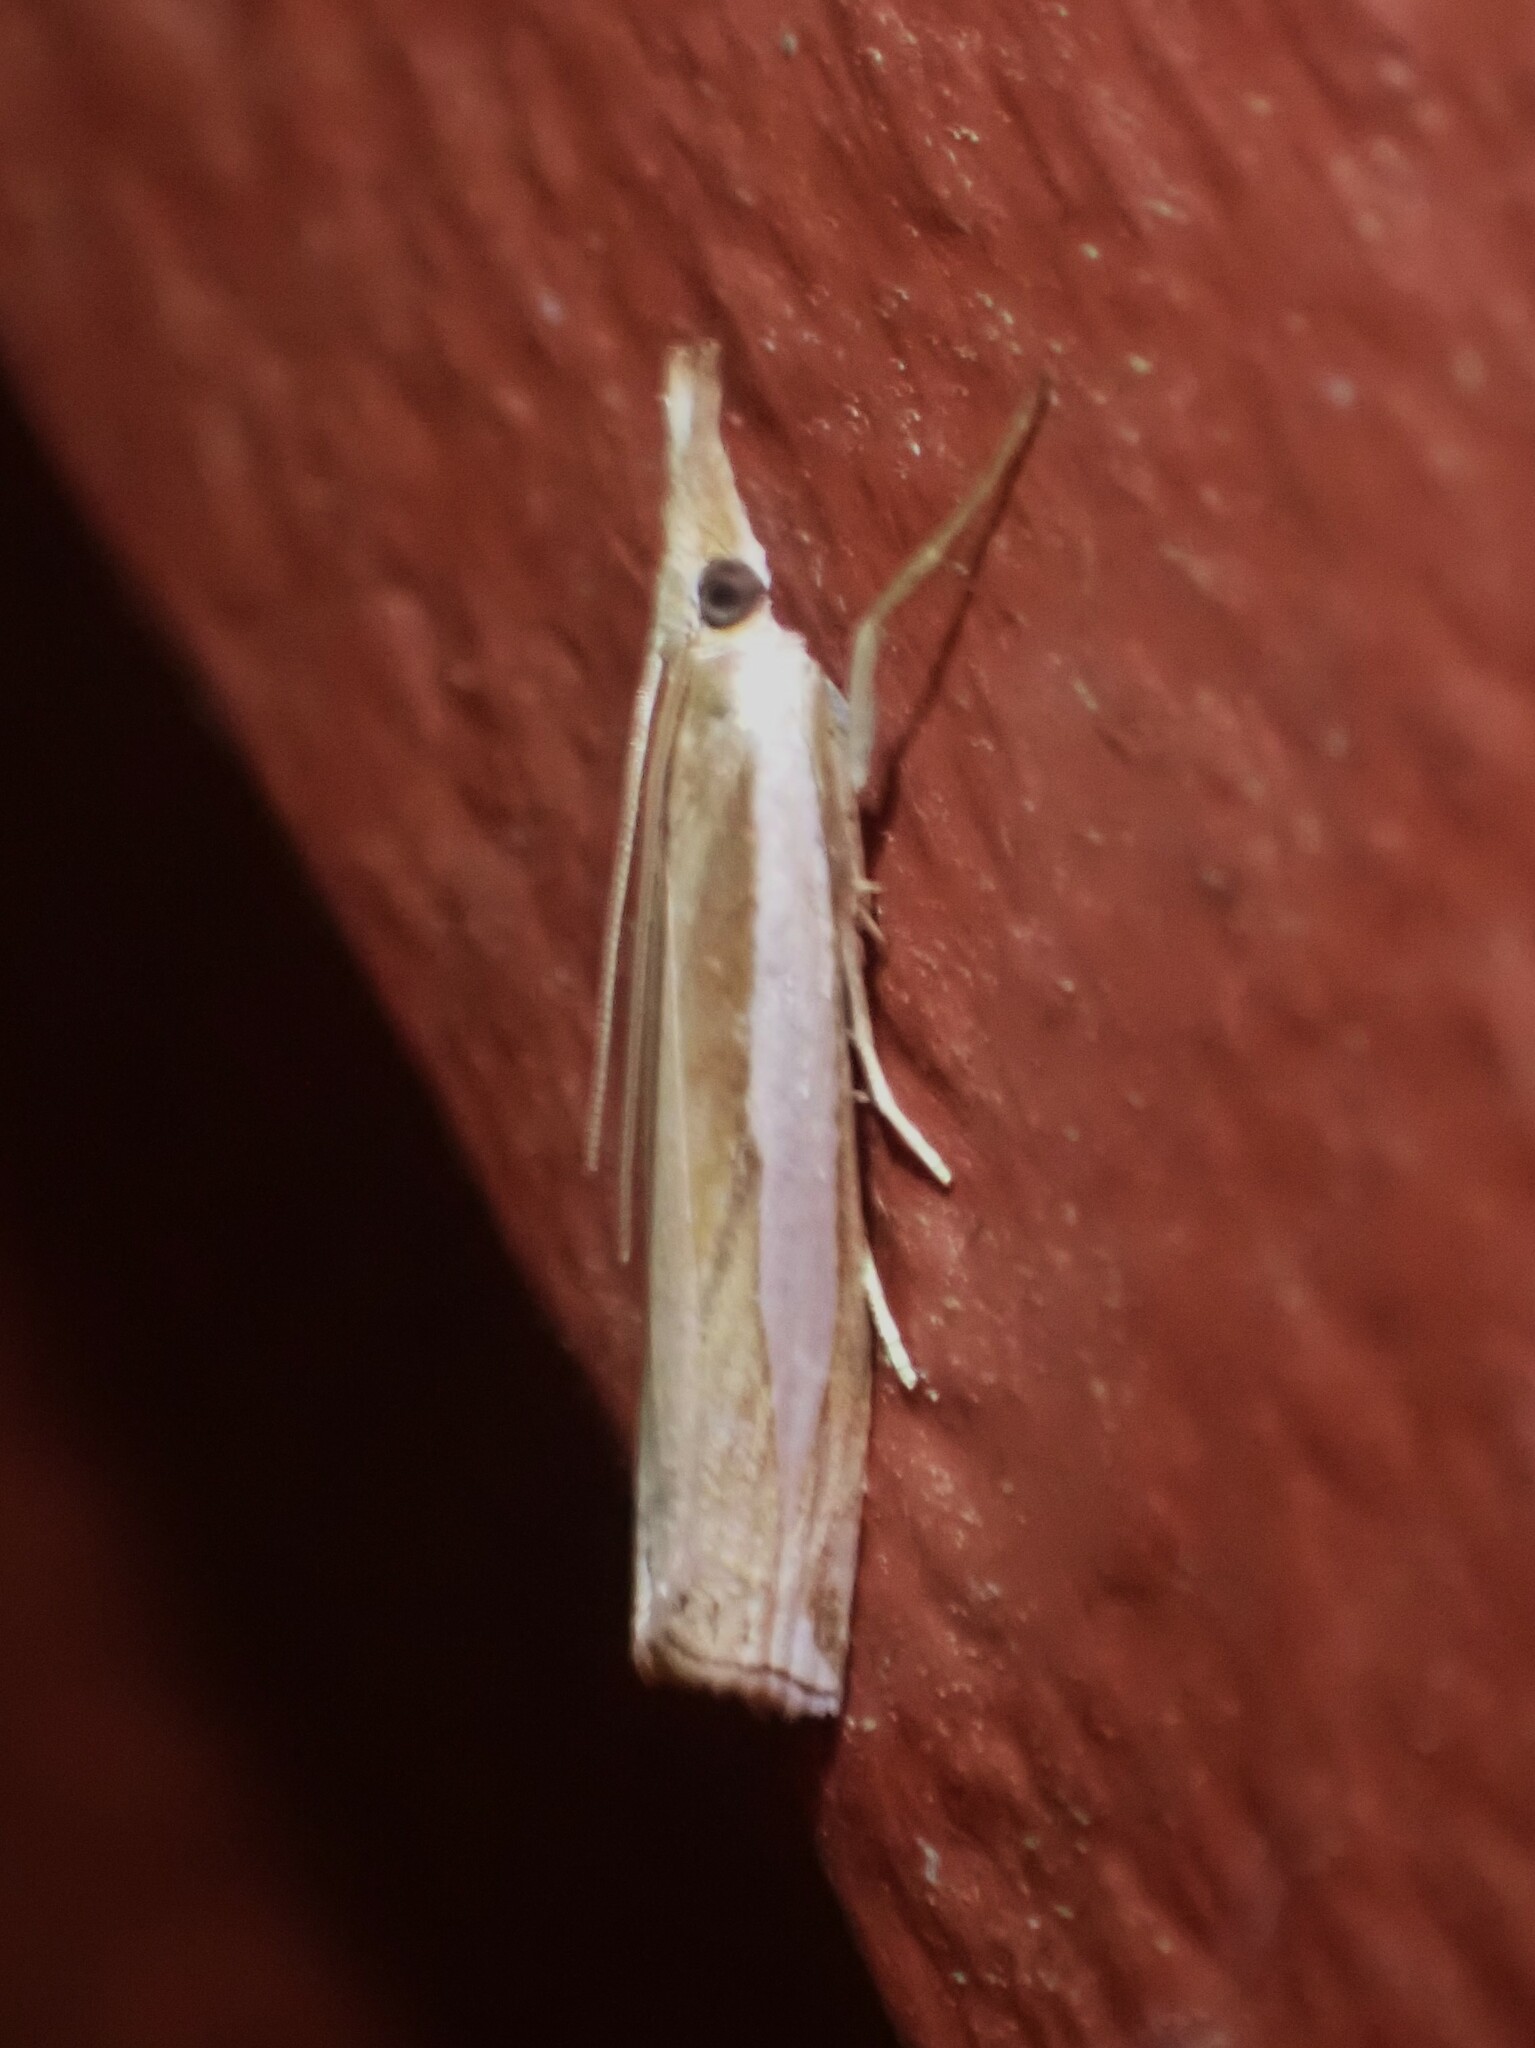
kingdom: Animalia
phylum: Arthropoda
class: Insecta
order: Lepidoptera
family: Crambidae
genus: Crambus
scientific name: Crambus leachellus
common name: Leach's grass-veneer
